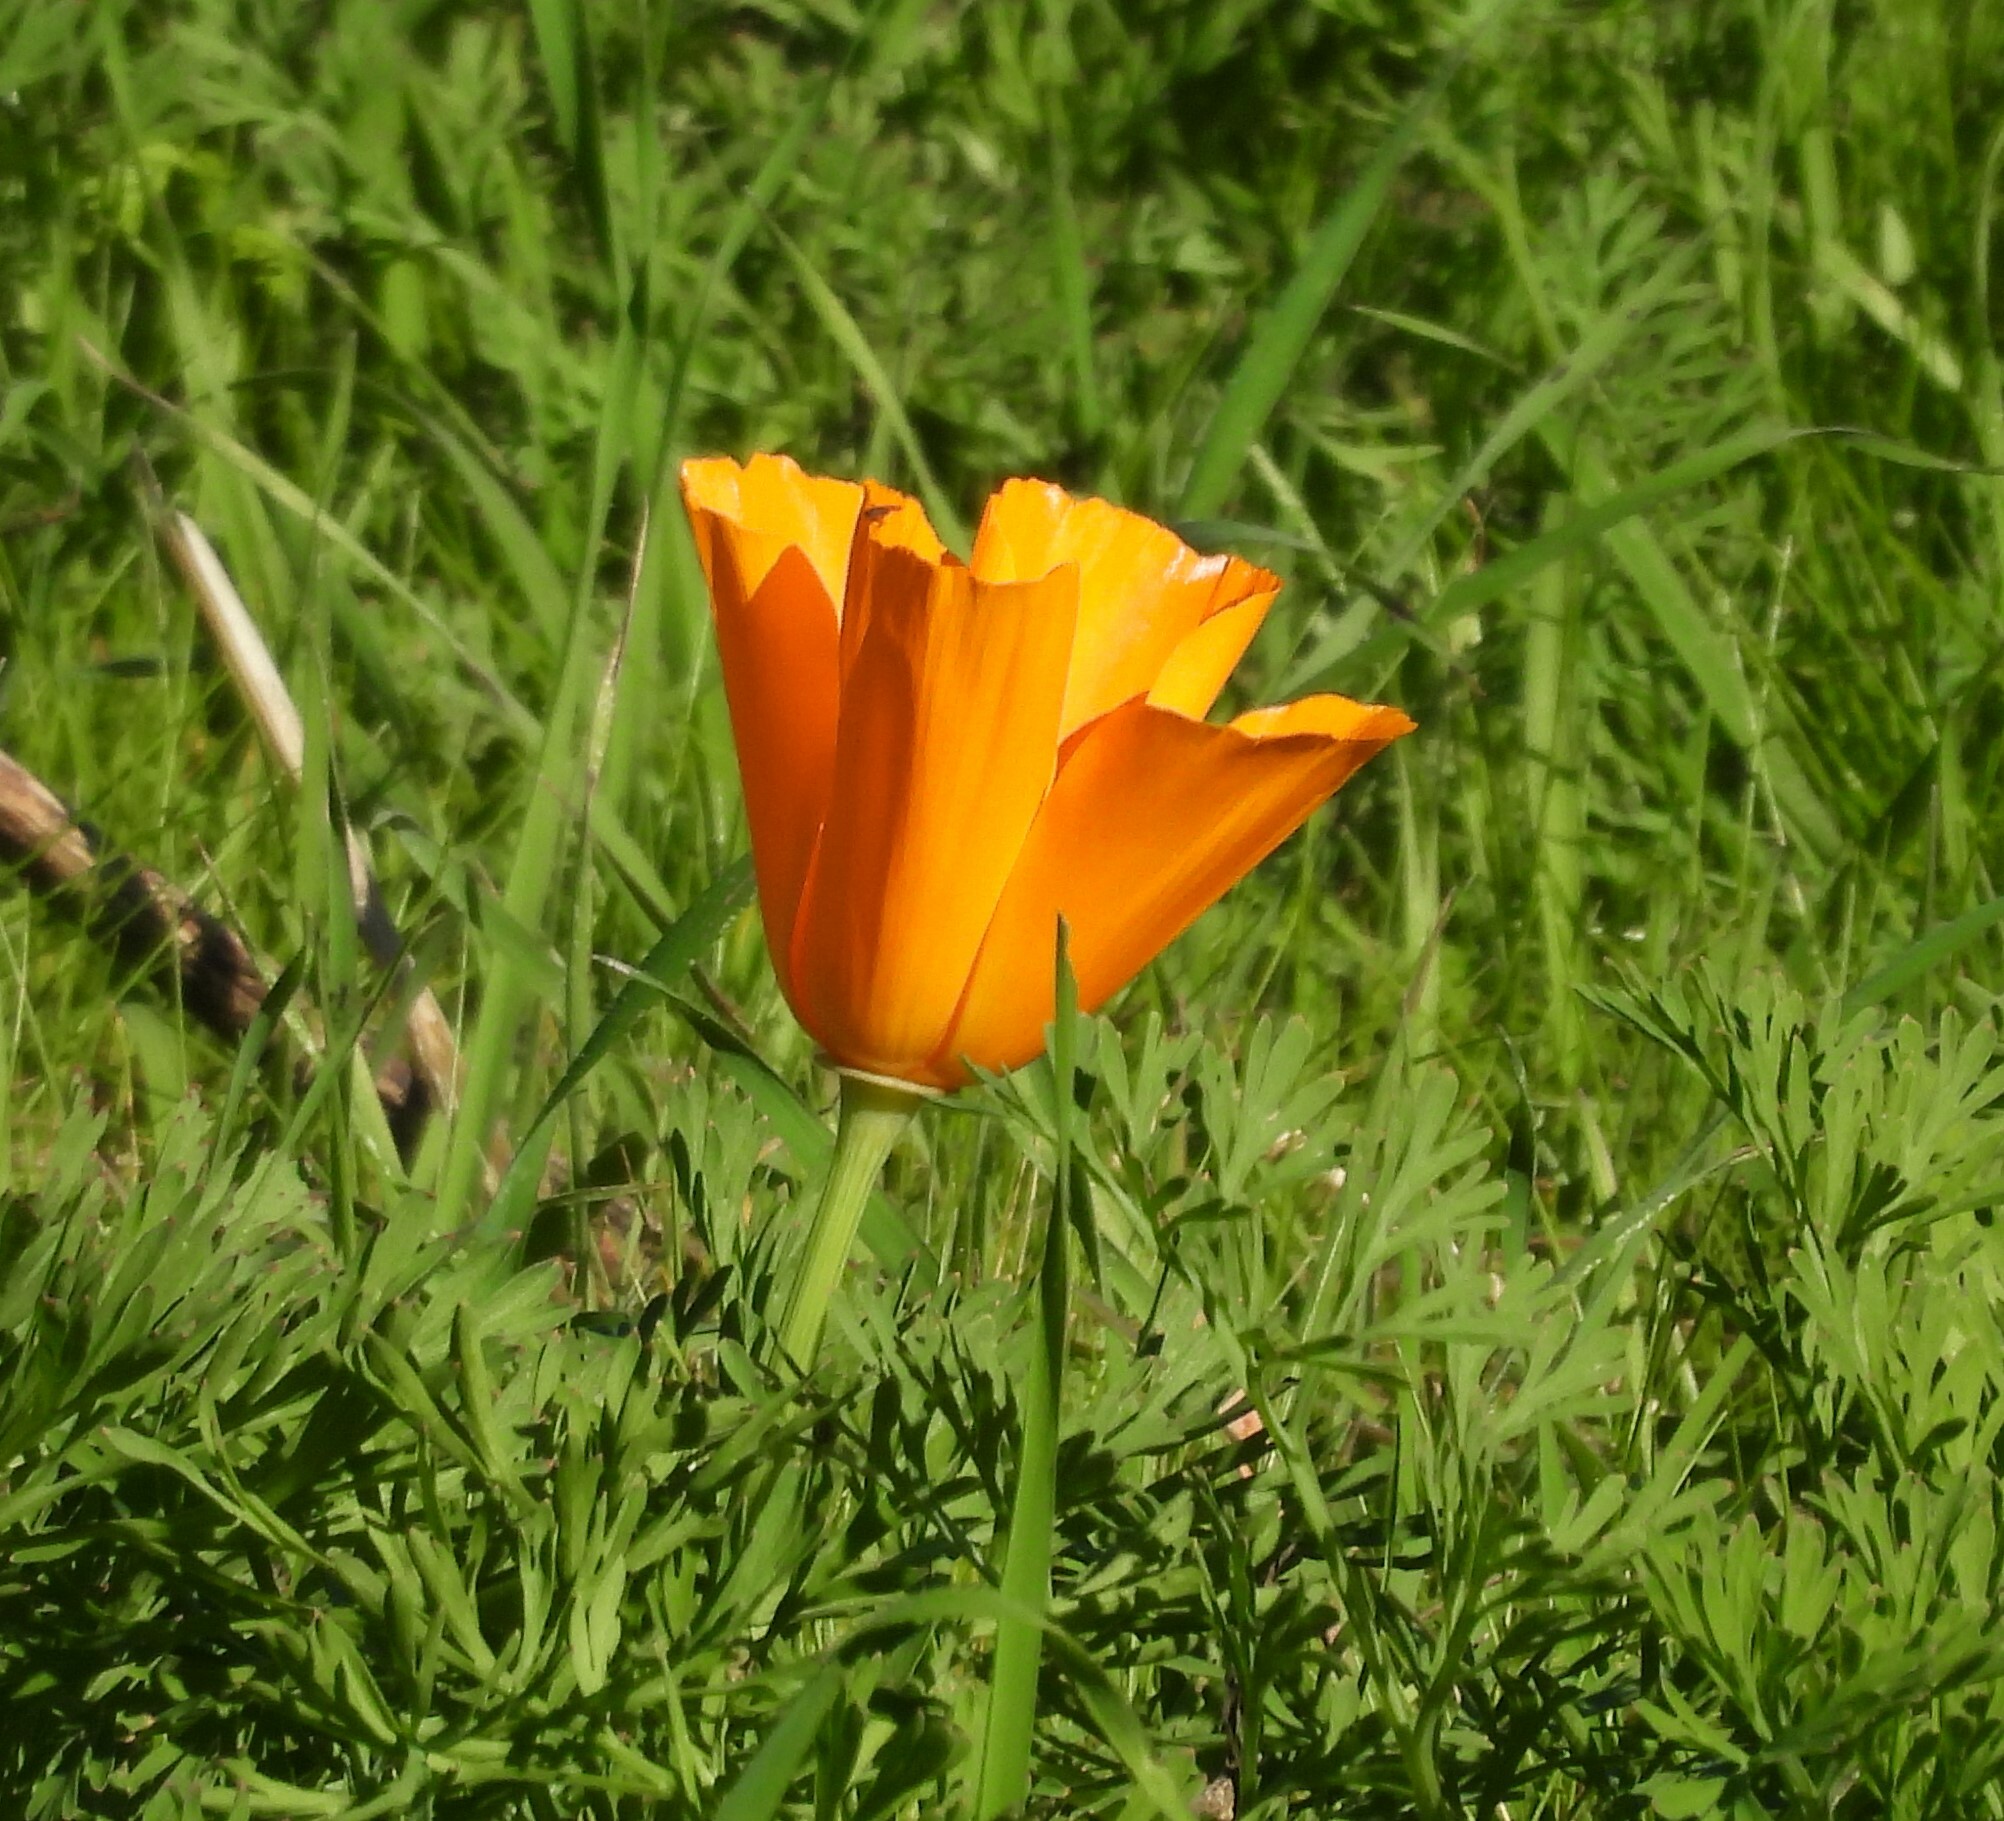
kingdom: Plantae
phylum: Tracheophyta
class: Magnoliopsida
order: Ranunculales
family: Papaveraceae
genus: Eschscholzia
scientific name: Eschscholzia californica
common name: California poppy
